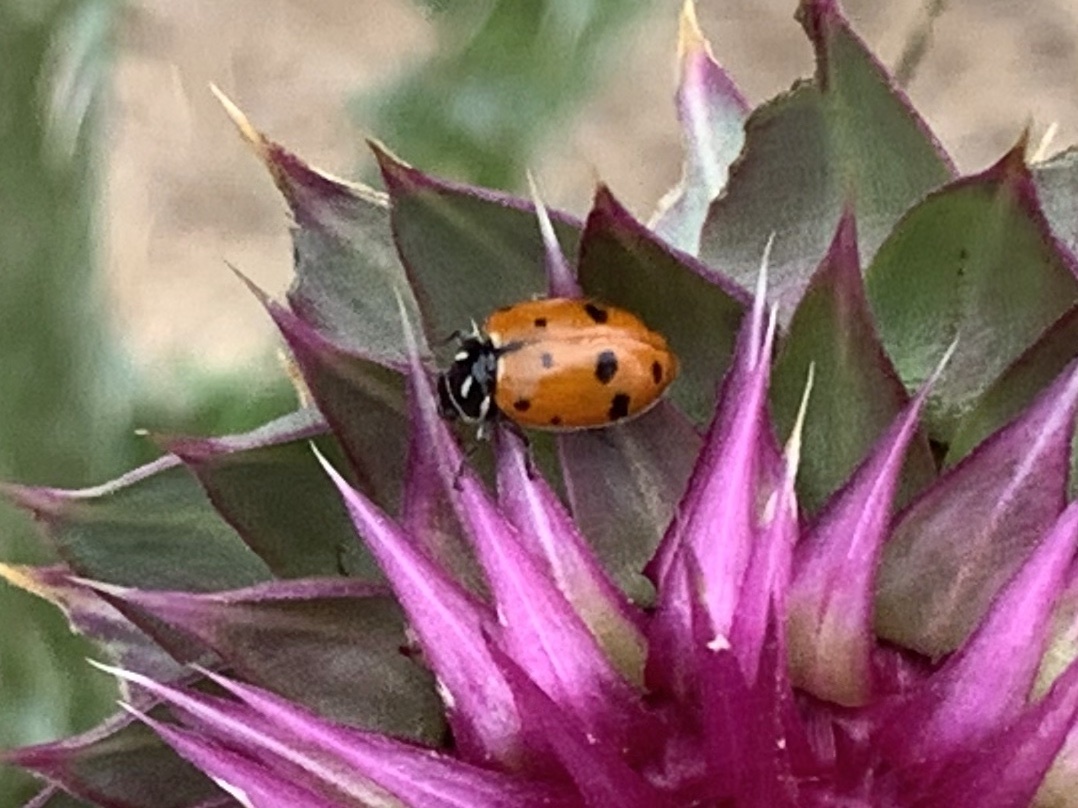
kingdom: Animalia
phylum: Arthropoda
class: Insecta
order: Coleoptera
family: Coccinellidae
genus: Hippodamia
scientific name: Hippodamia convergens
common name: Convergent lady beetle
